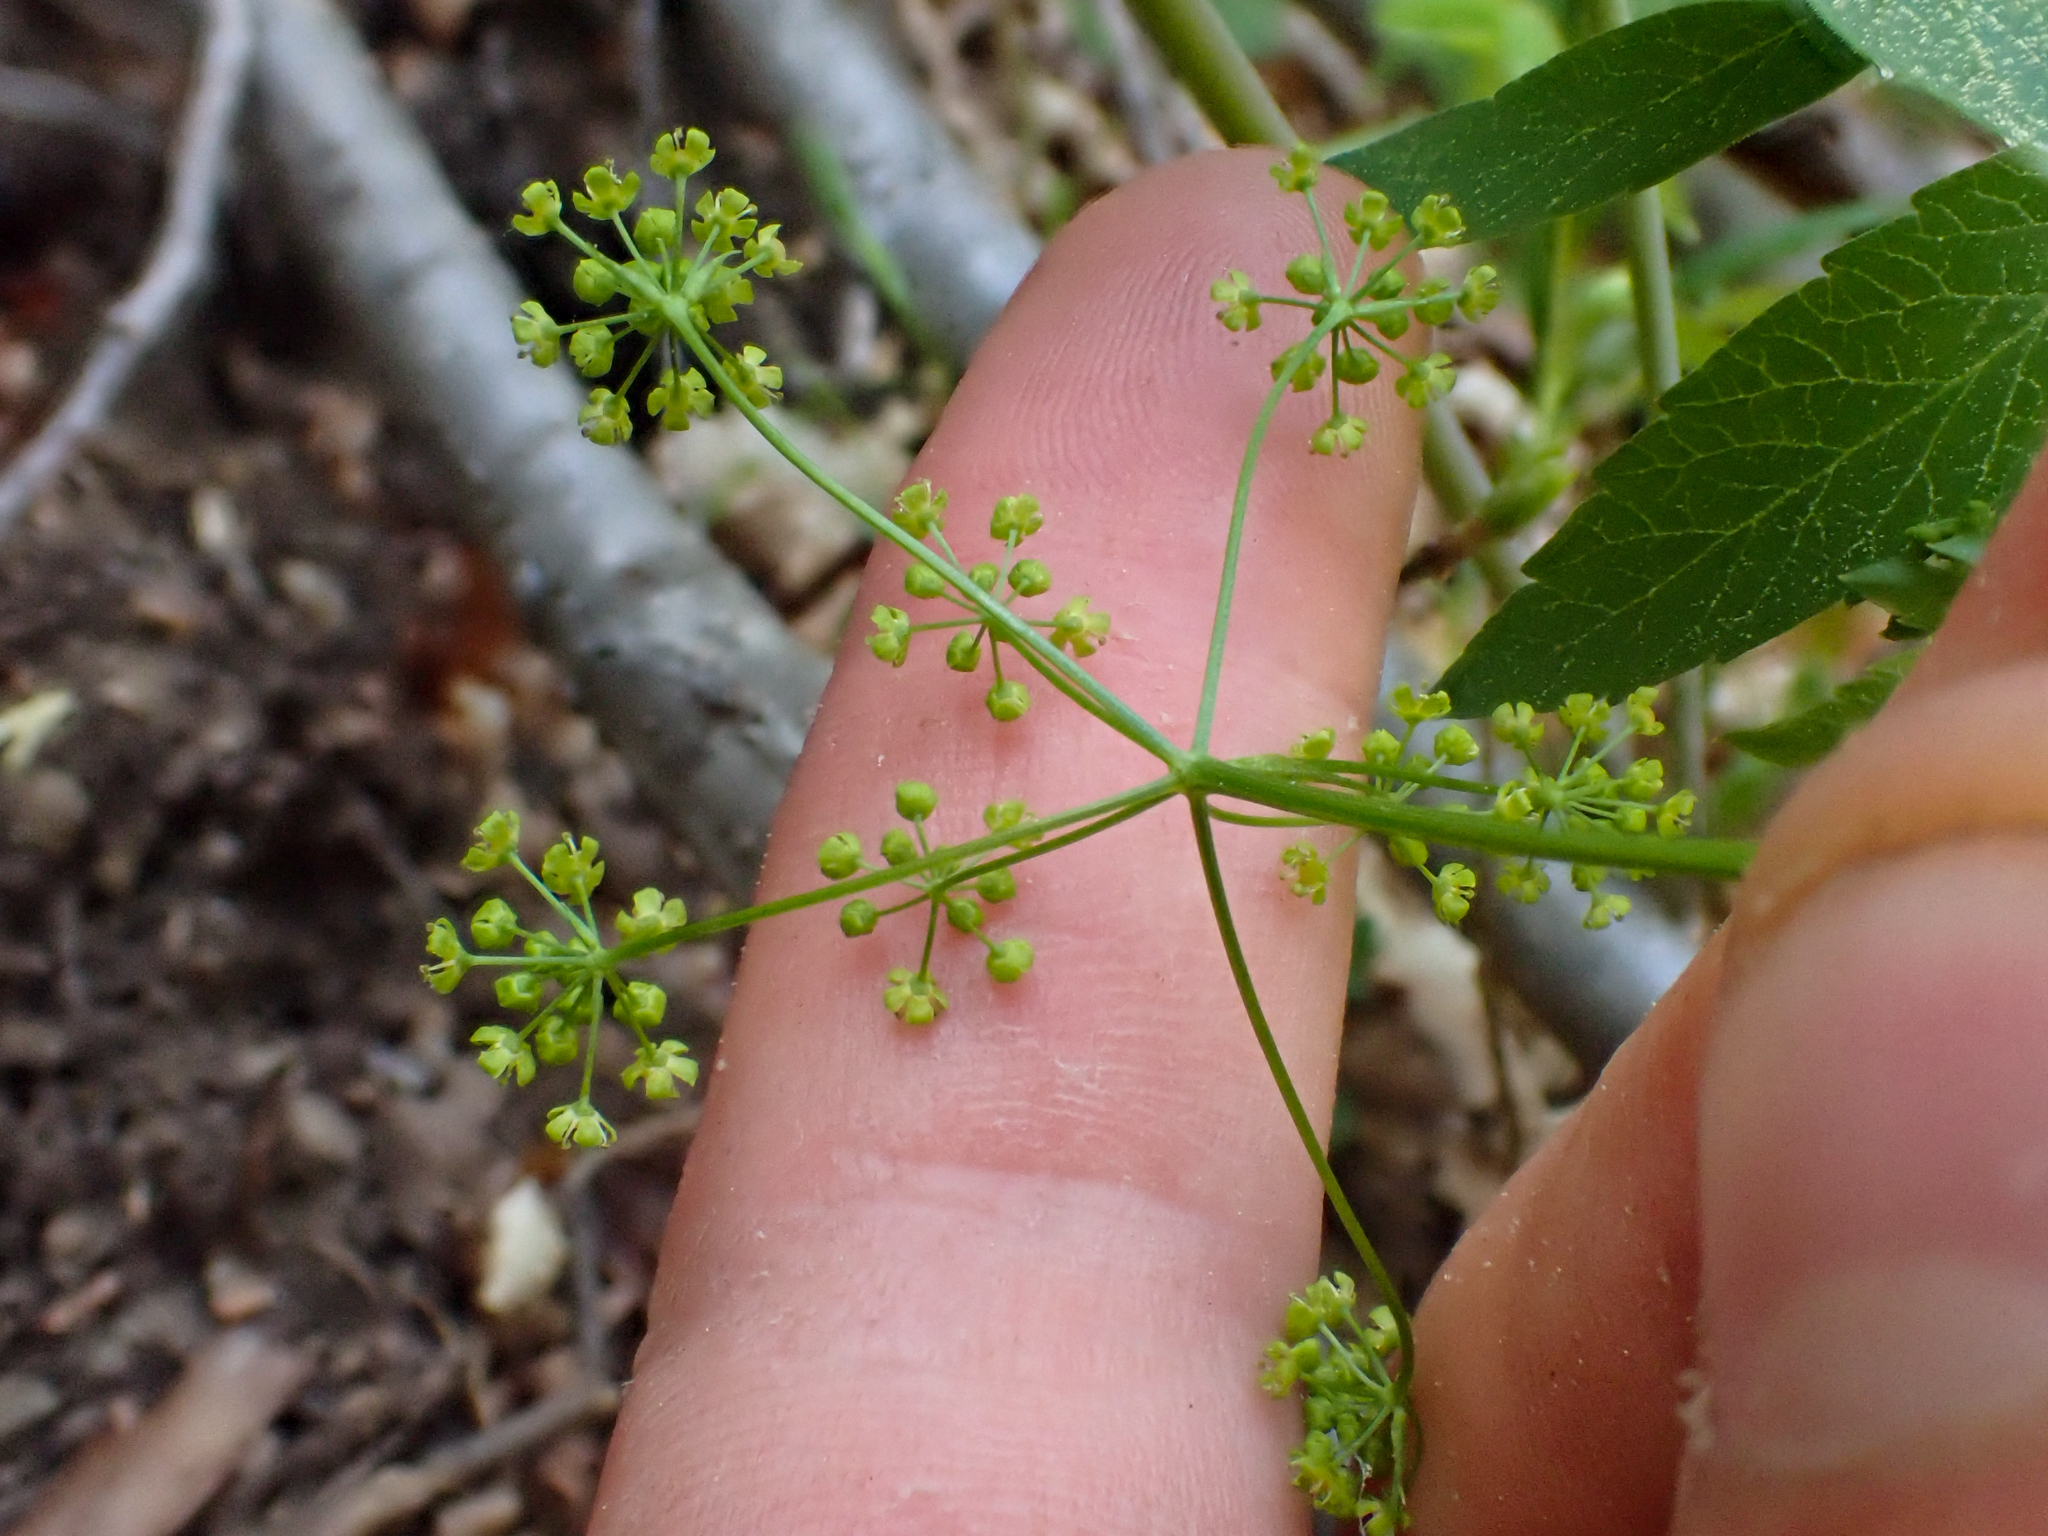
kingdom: Plantae
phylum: Tracheophyta
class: Magnoliopsida
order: Apiales
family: Apiaceae
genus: Osmorhiza
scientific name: Osmorhiza occidentalis
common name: Western sweet cicely
